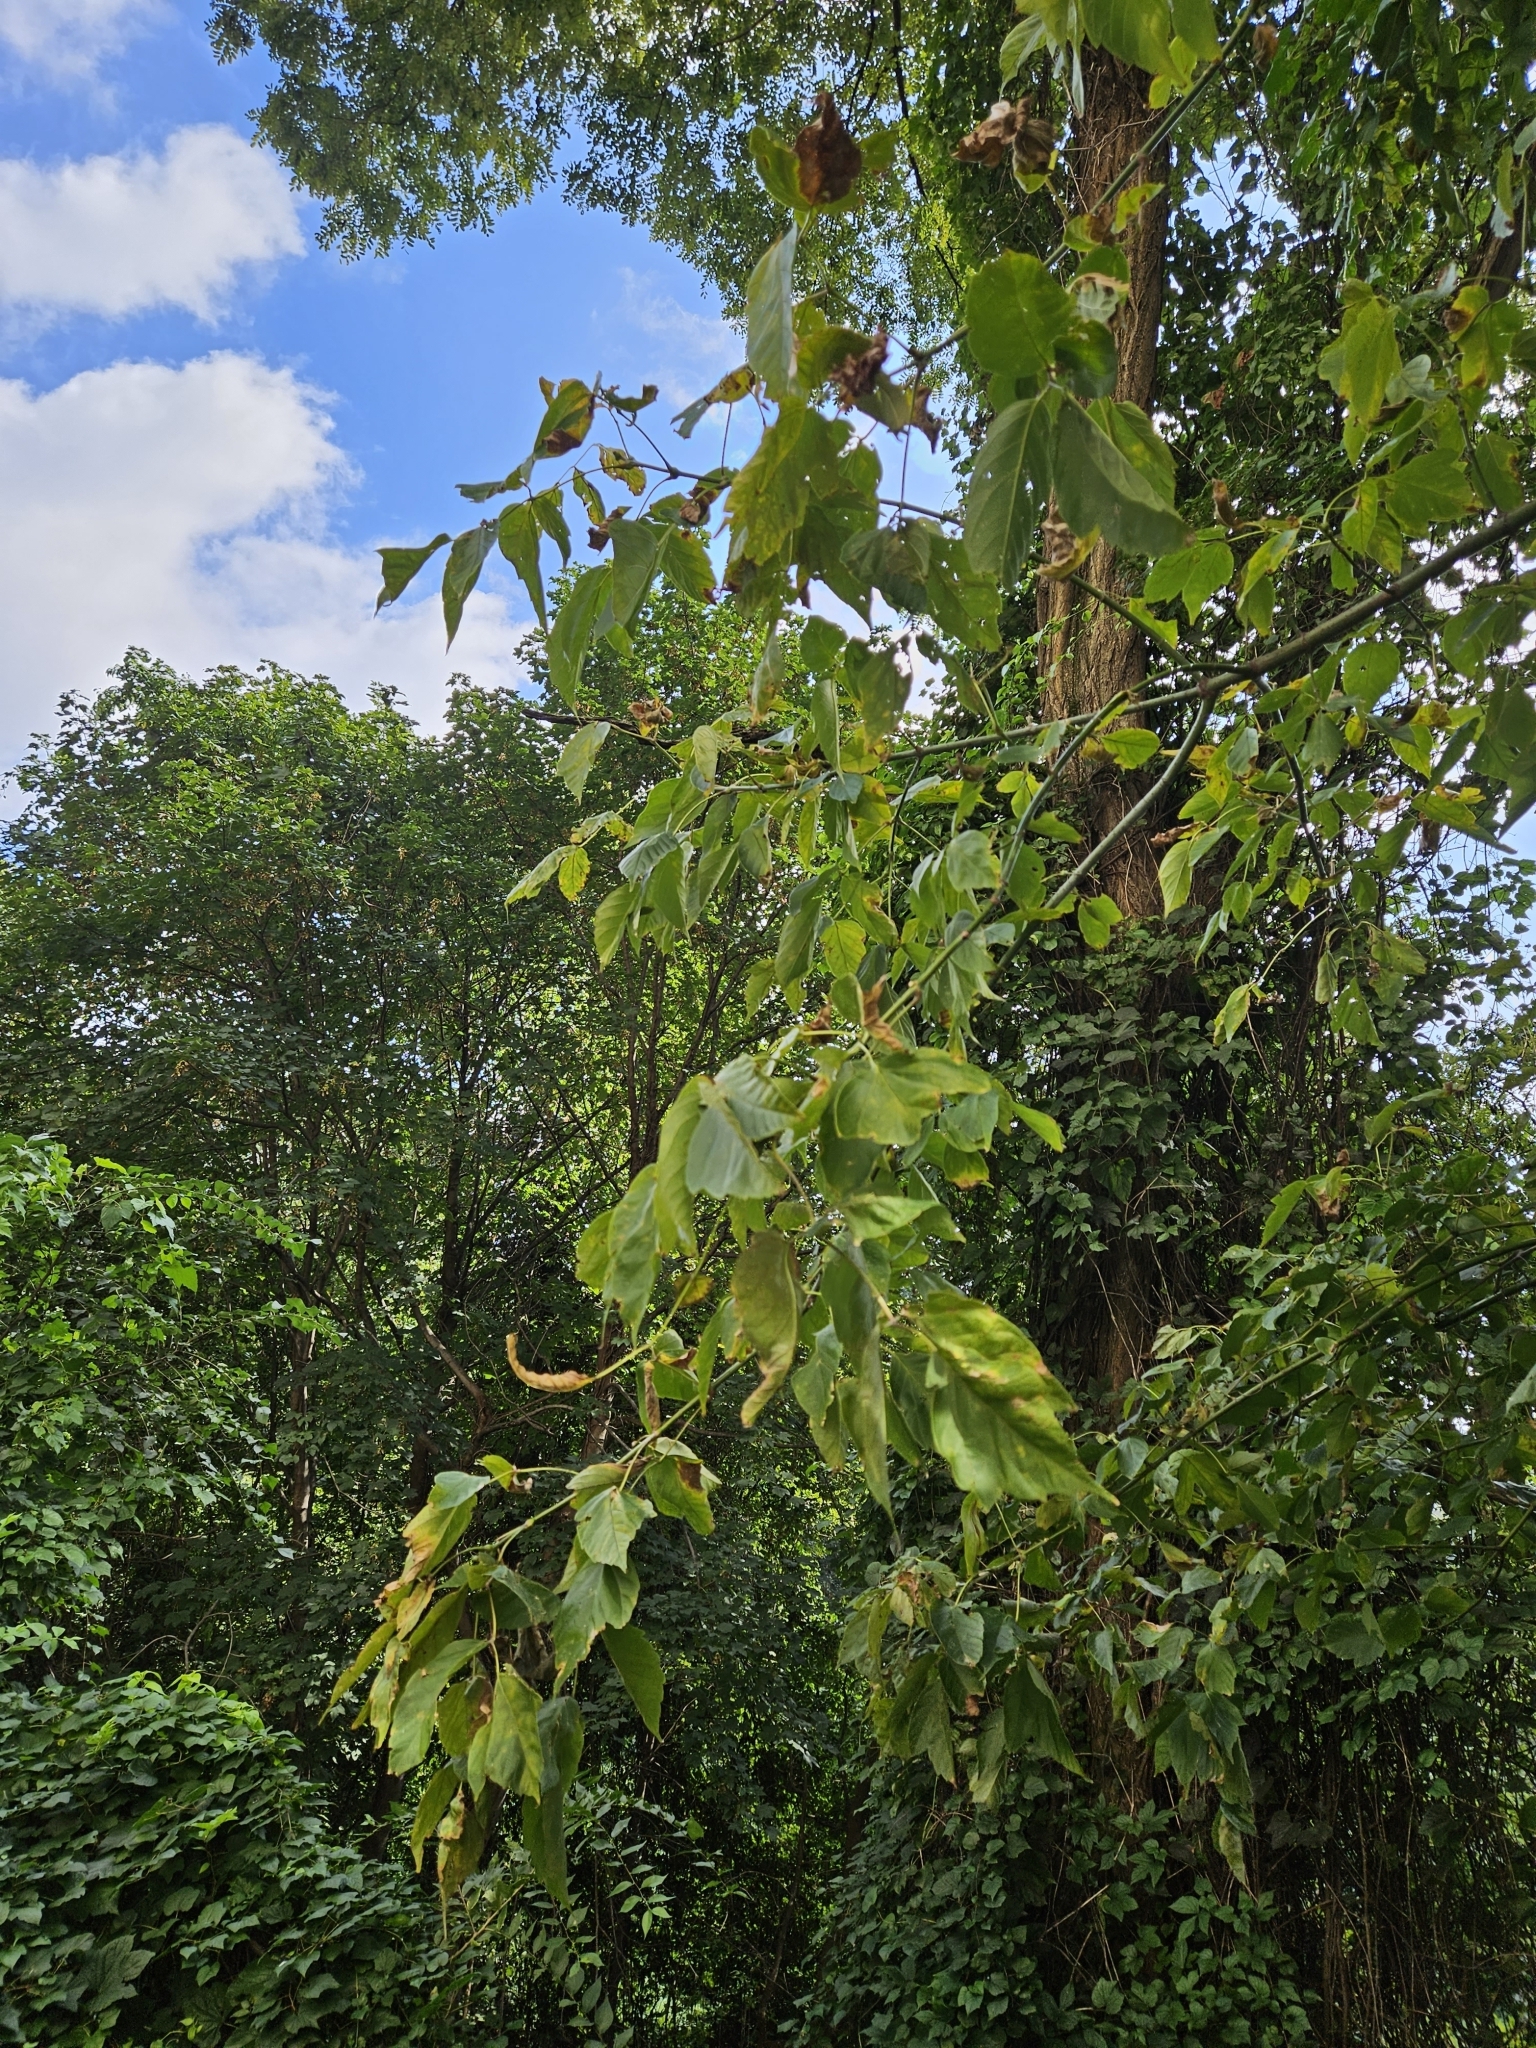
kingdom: Plantae
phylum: Tracheophyta
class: Magnoliopsida
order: Sapindales
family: Sapindaceae
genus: Acer
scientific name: Acer negundo
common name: Ashleaf maple
